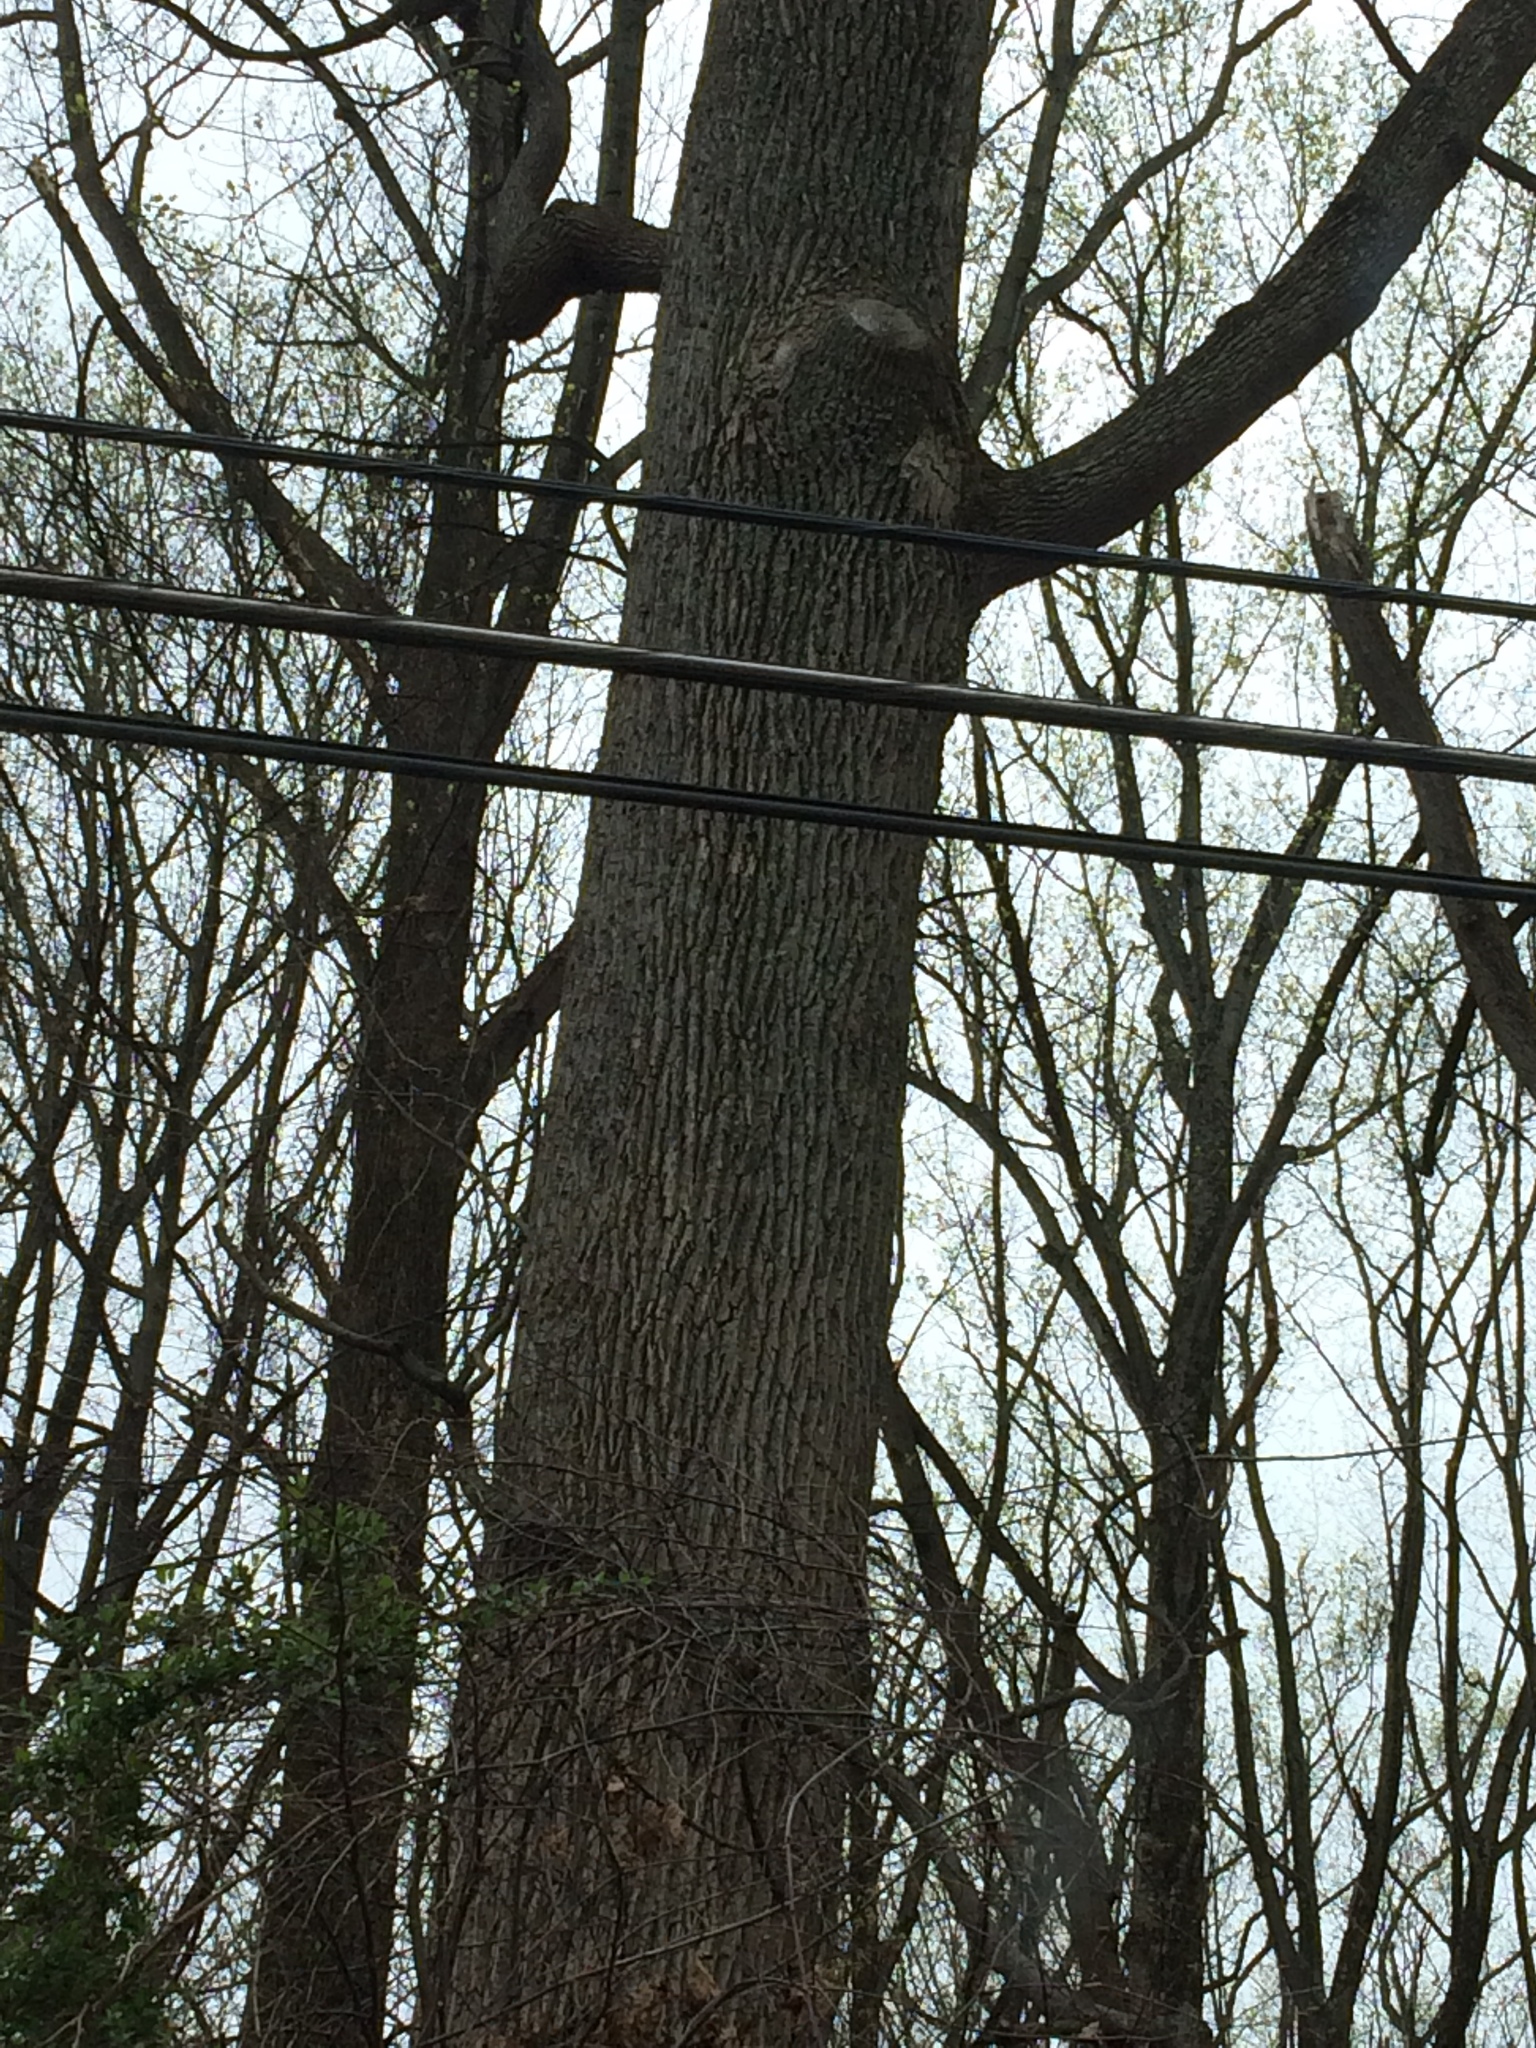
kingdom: Plantae
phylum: Tracheophyta
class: Magnoliopsida
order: Magnoliales
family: Magnoliaceae
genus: Liriodendron
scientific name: Liriodendron tulipifera
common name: Tulip tree
